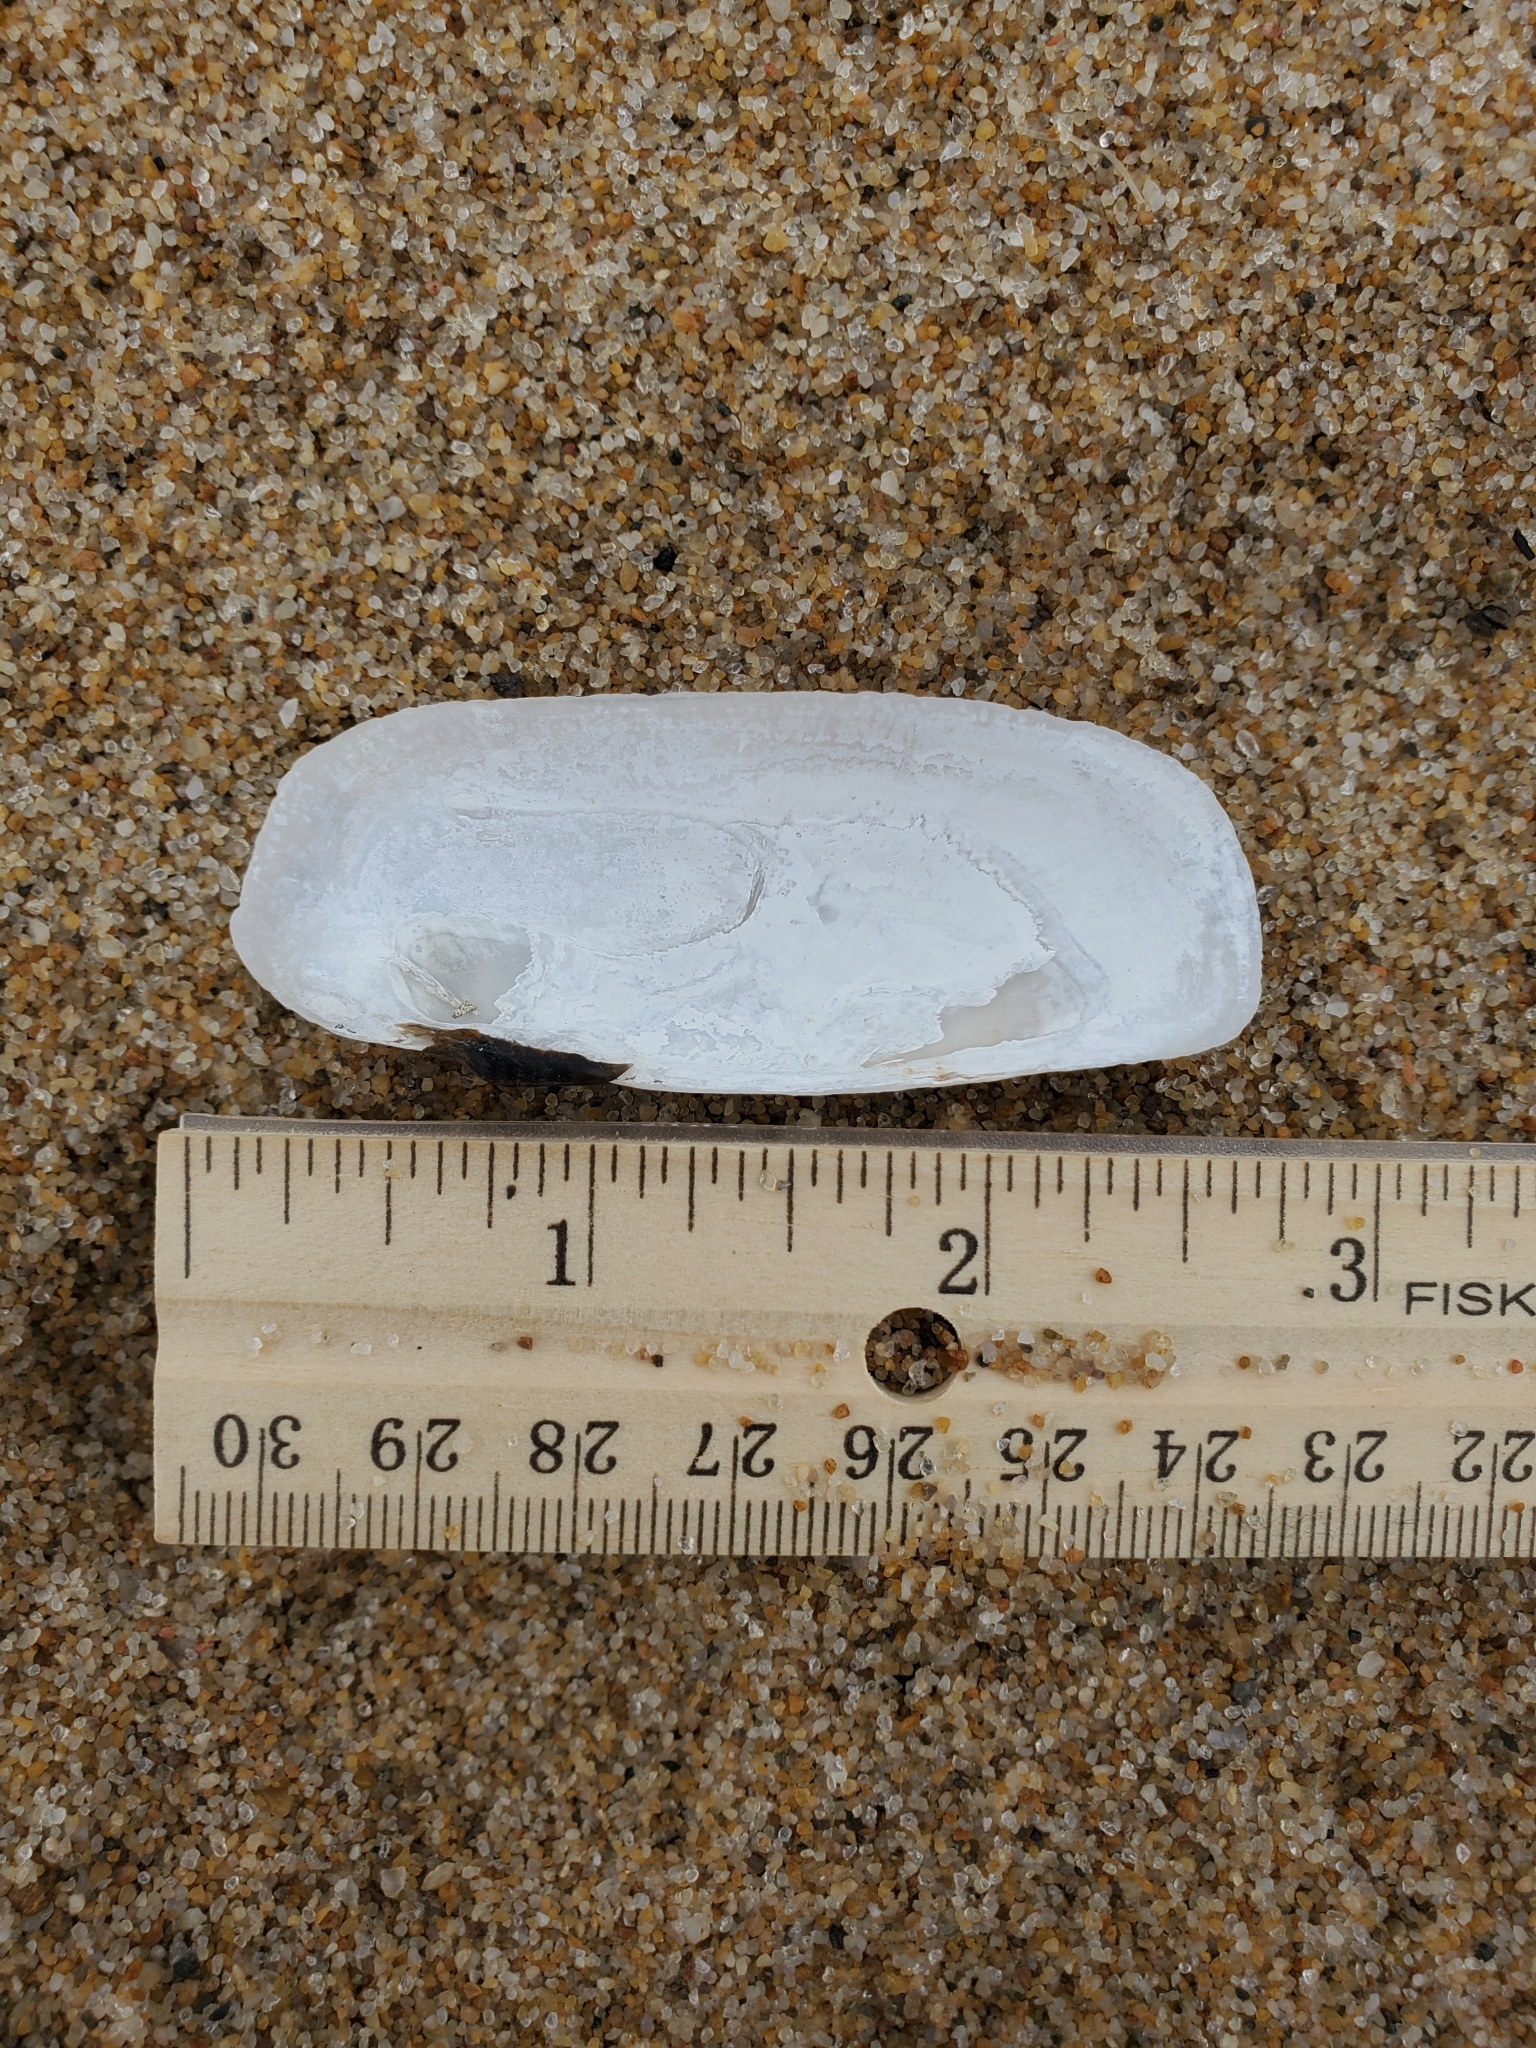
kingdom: Animalia
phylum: Mollusca
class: Bivalvia
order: Cardiida
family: Solecurtidae
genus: Tagelus
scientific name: Tagelus plebeius
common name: Stout tagelus
